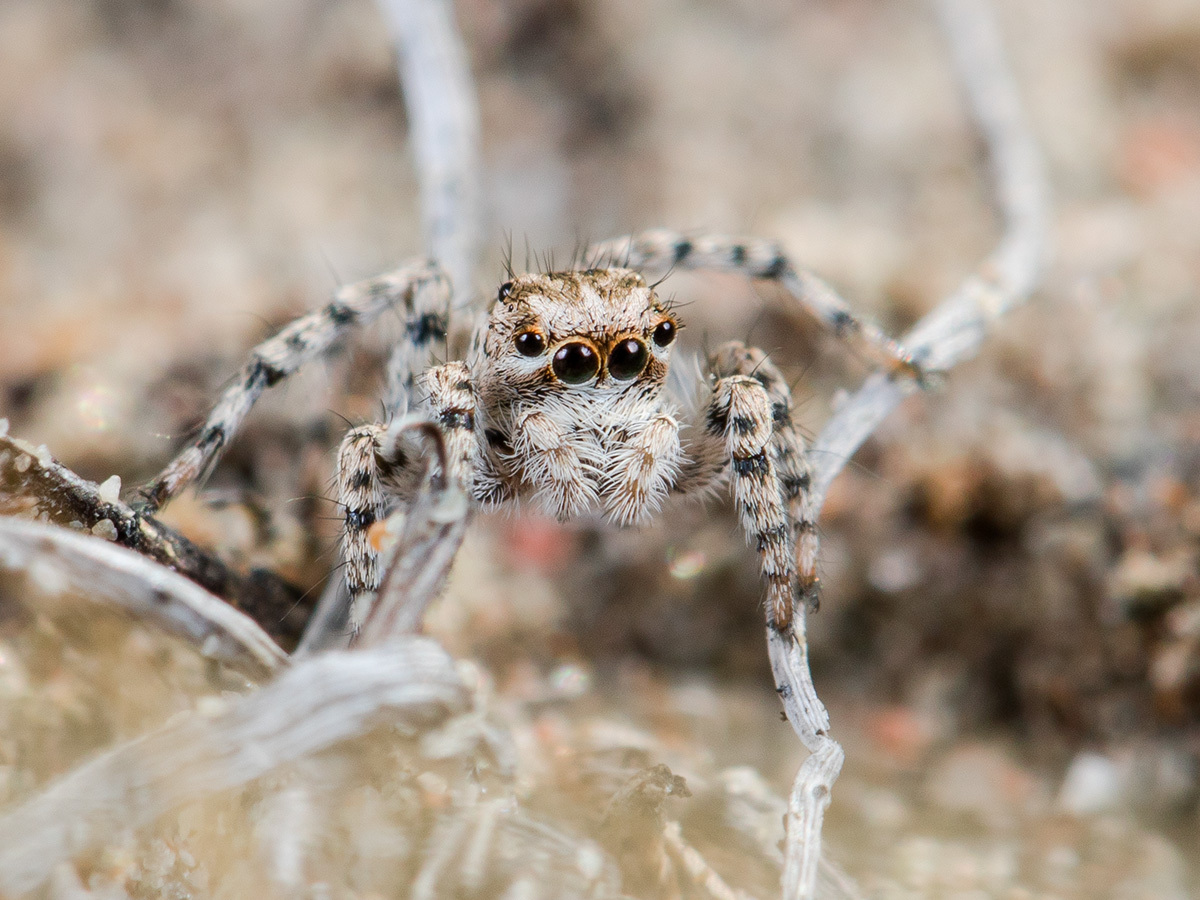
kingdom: Animalia
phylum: Arthropoda
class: Arachnida
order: Araneae
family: Salticidae
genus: Aelurillus
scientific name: Aelurillus dubatolovi
